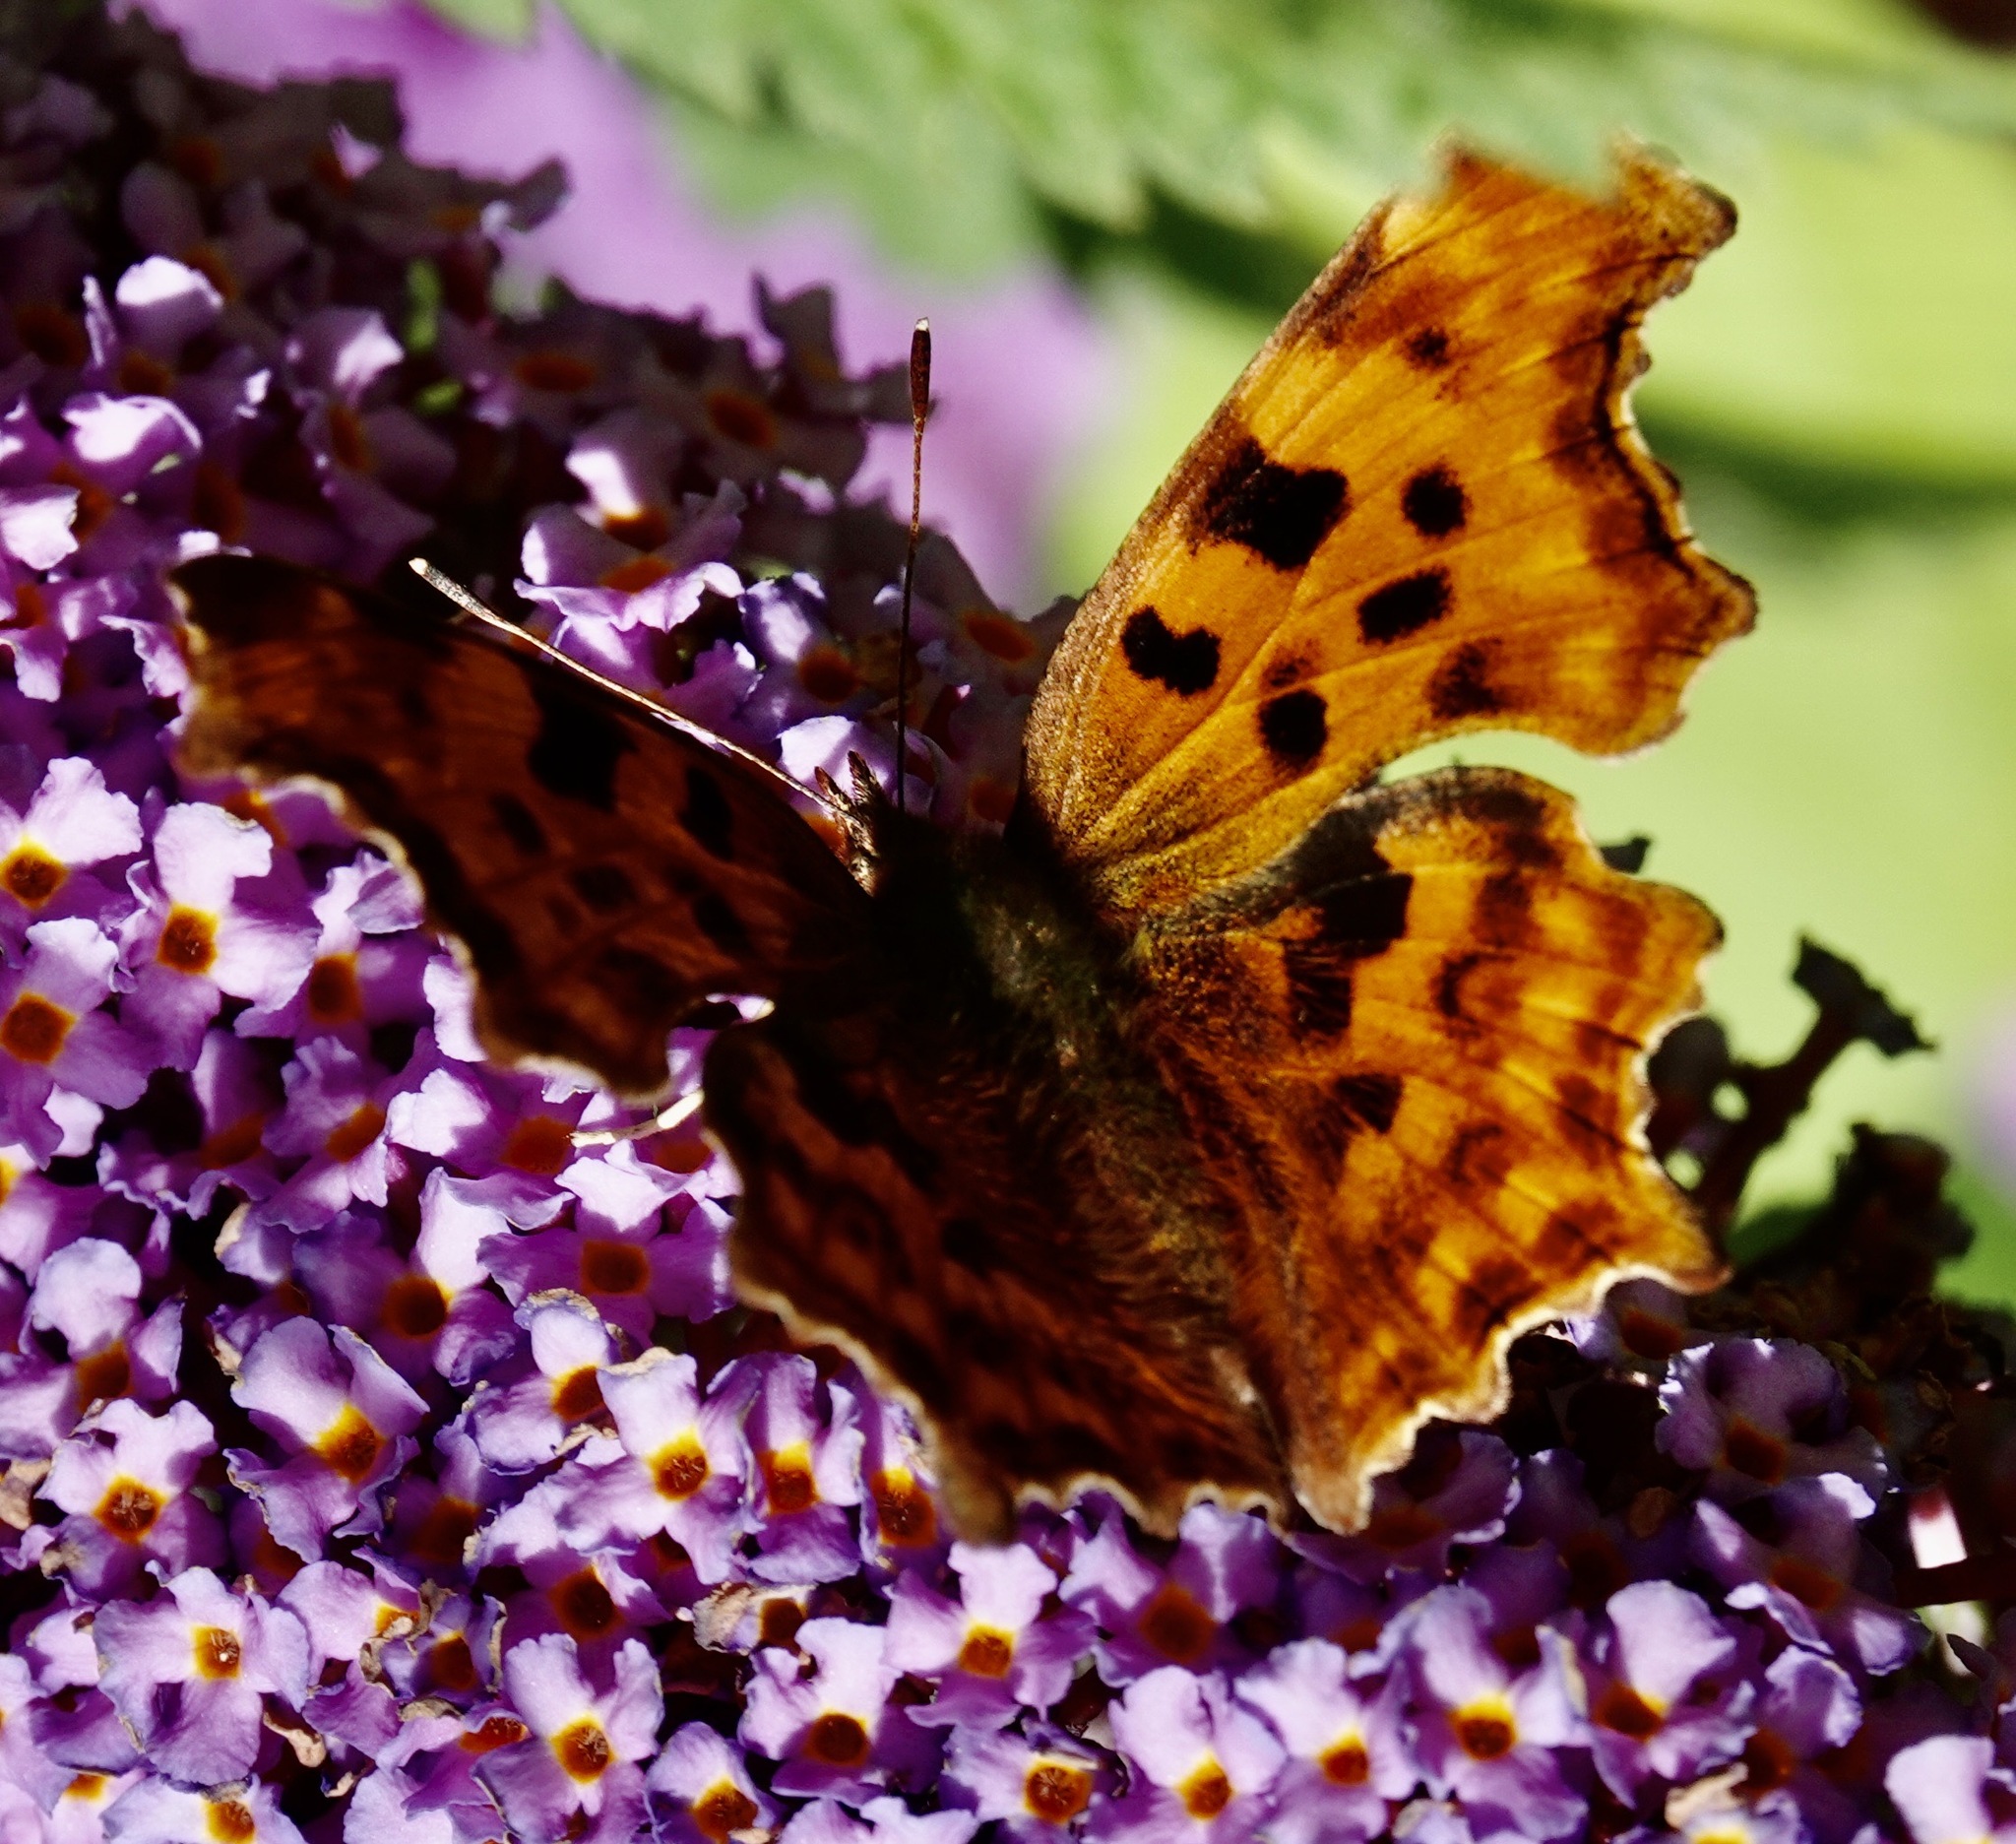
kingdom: Animalia
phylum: Arthropoda
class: Insecta
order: Lepidoptera
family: Nymphalidae
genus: Polygonia
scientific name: Polygonia c-album
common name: Comma
